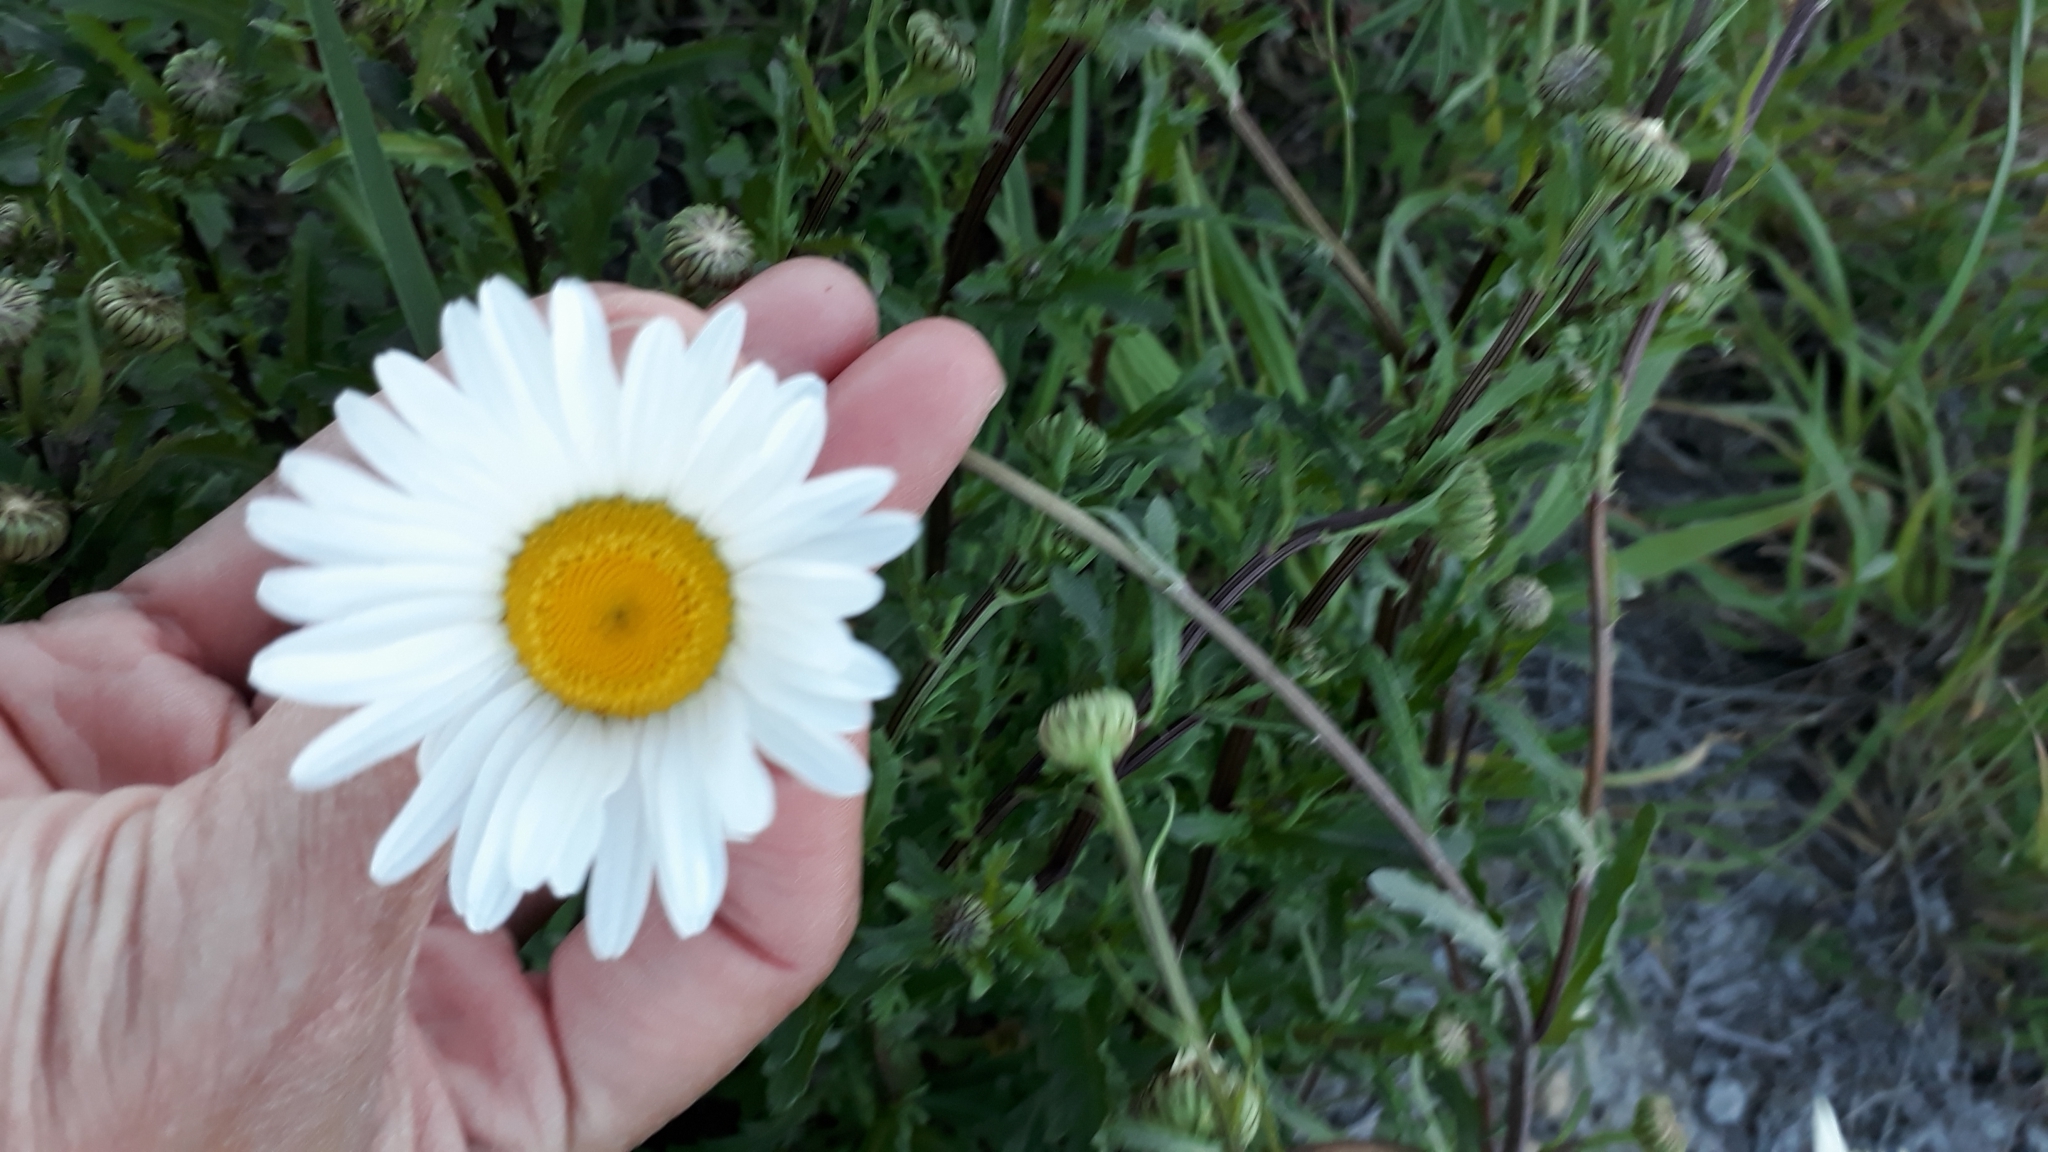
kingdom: Plantae
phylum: Tracheophyta
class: Magnoliopsida
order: Asterales
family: Asteraceae
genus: Leucanthemum
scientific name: Leucanthemum vulgare
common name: Oxeye daisy
